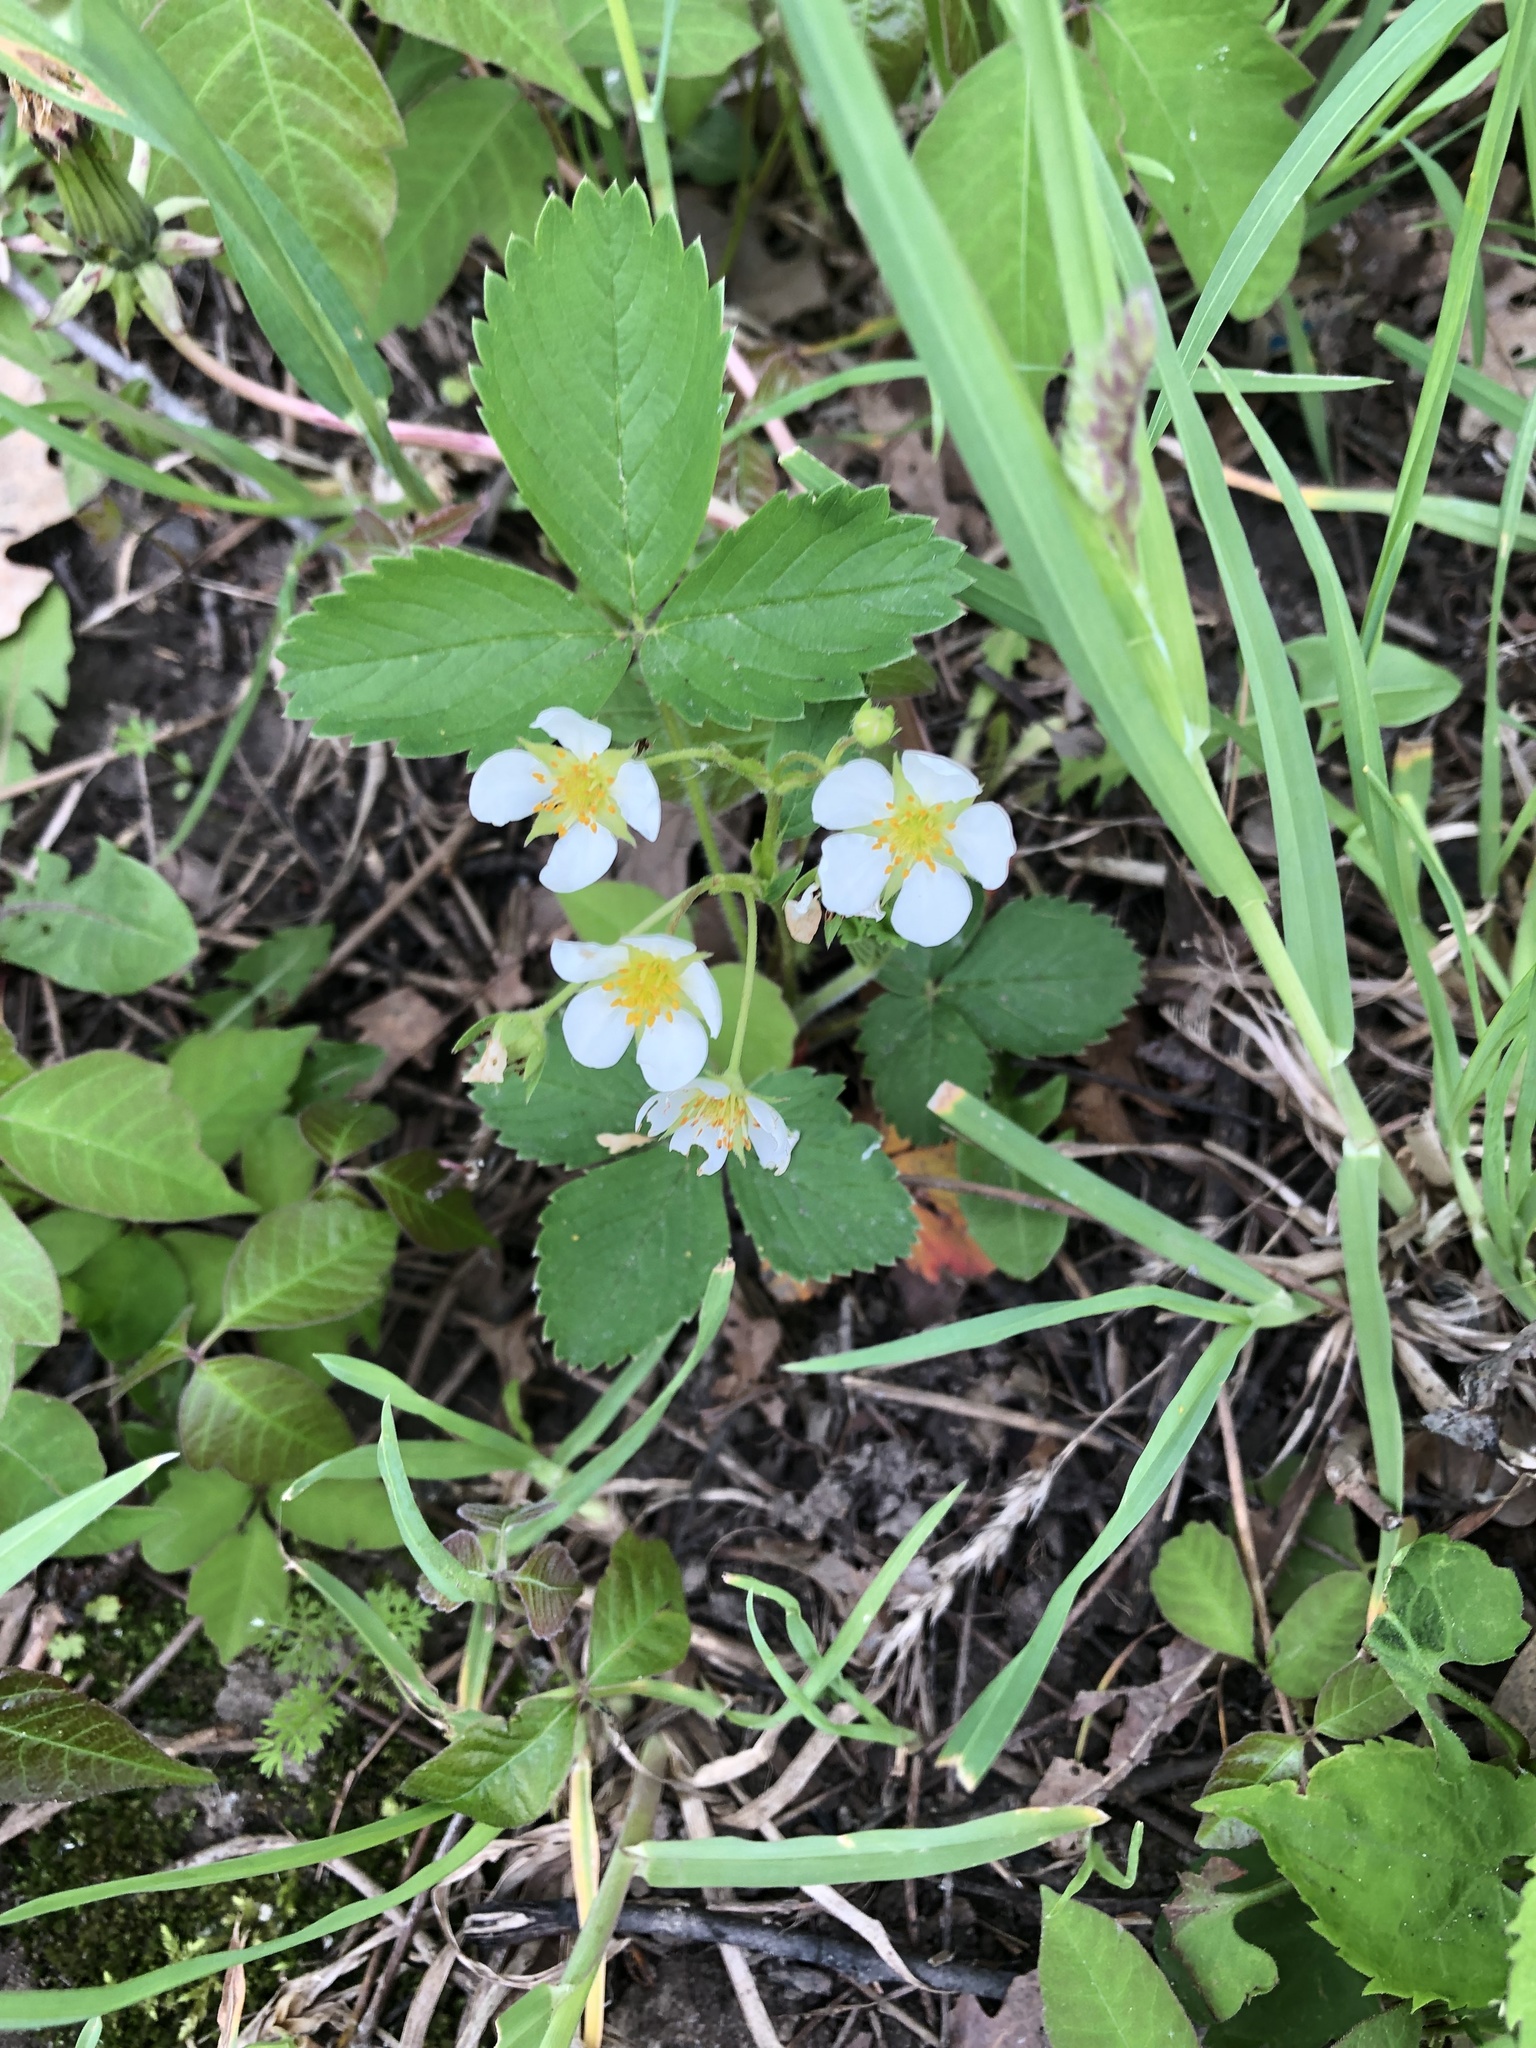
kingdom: Plantae
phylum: Tracheophyta
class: Magnoliopsida
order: Rosales
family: Rosaceae
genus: Fragaria
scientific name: Fragaria virginiana
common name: Thickleaved wild strawberry
